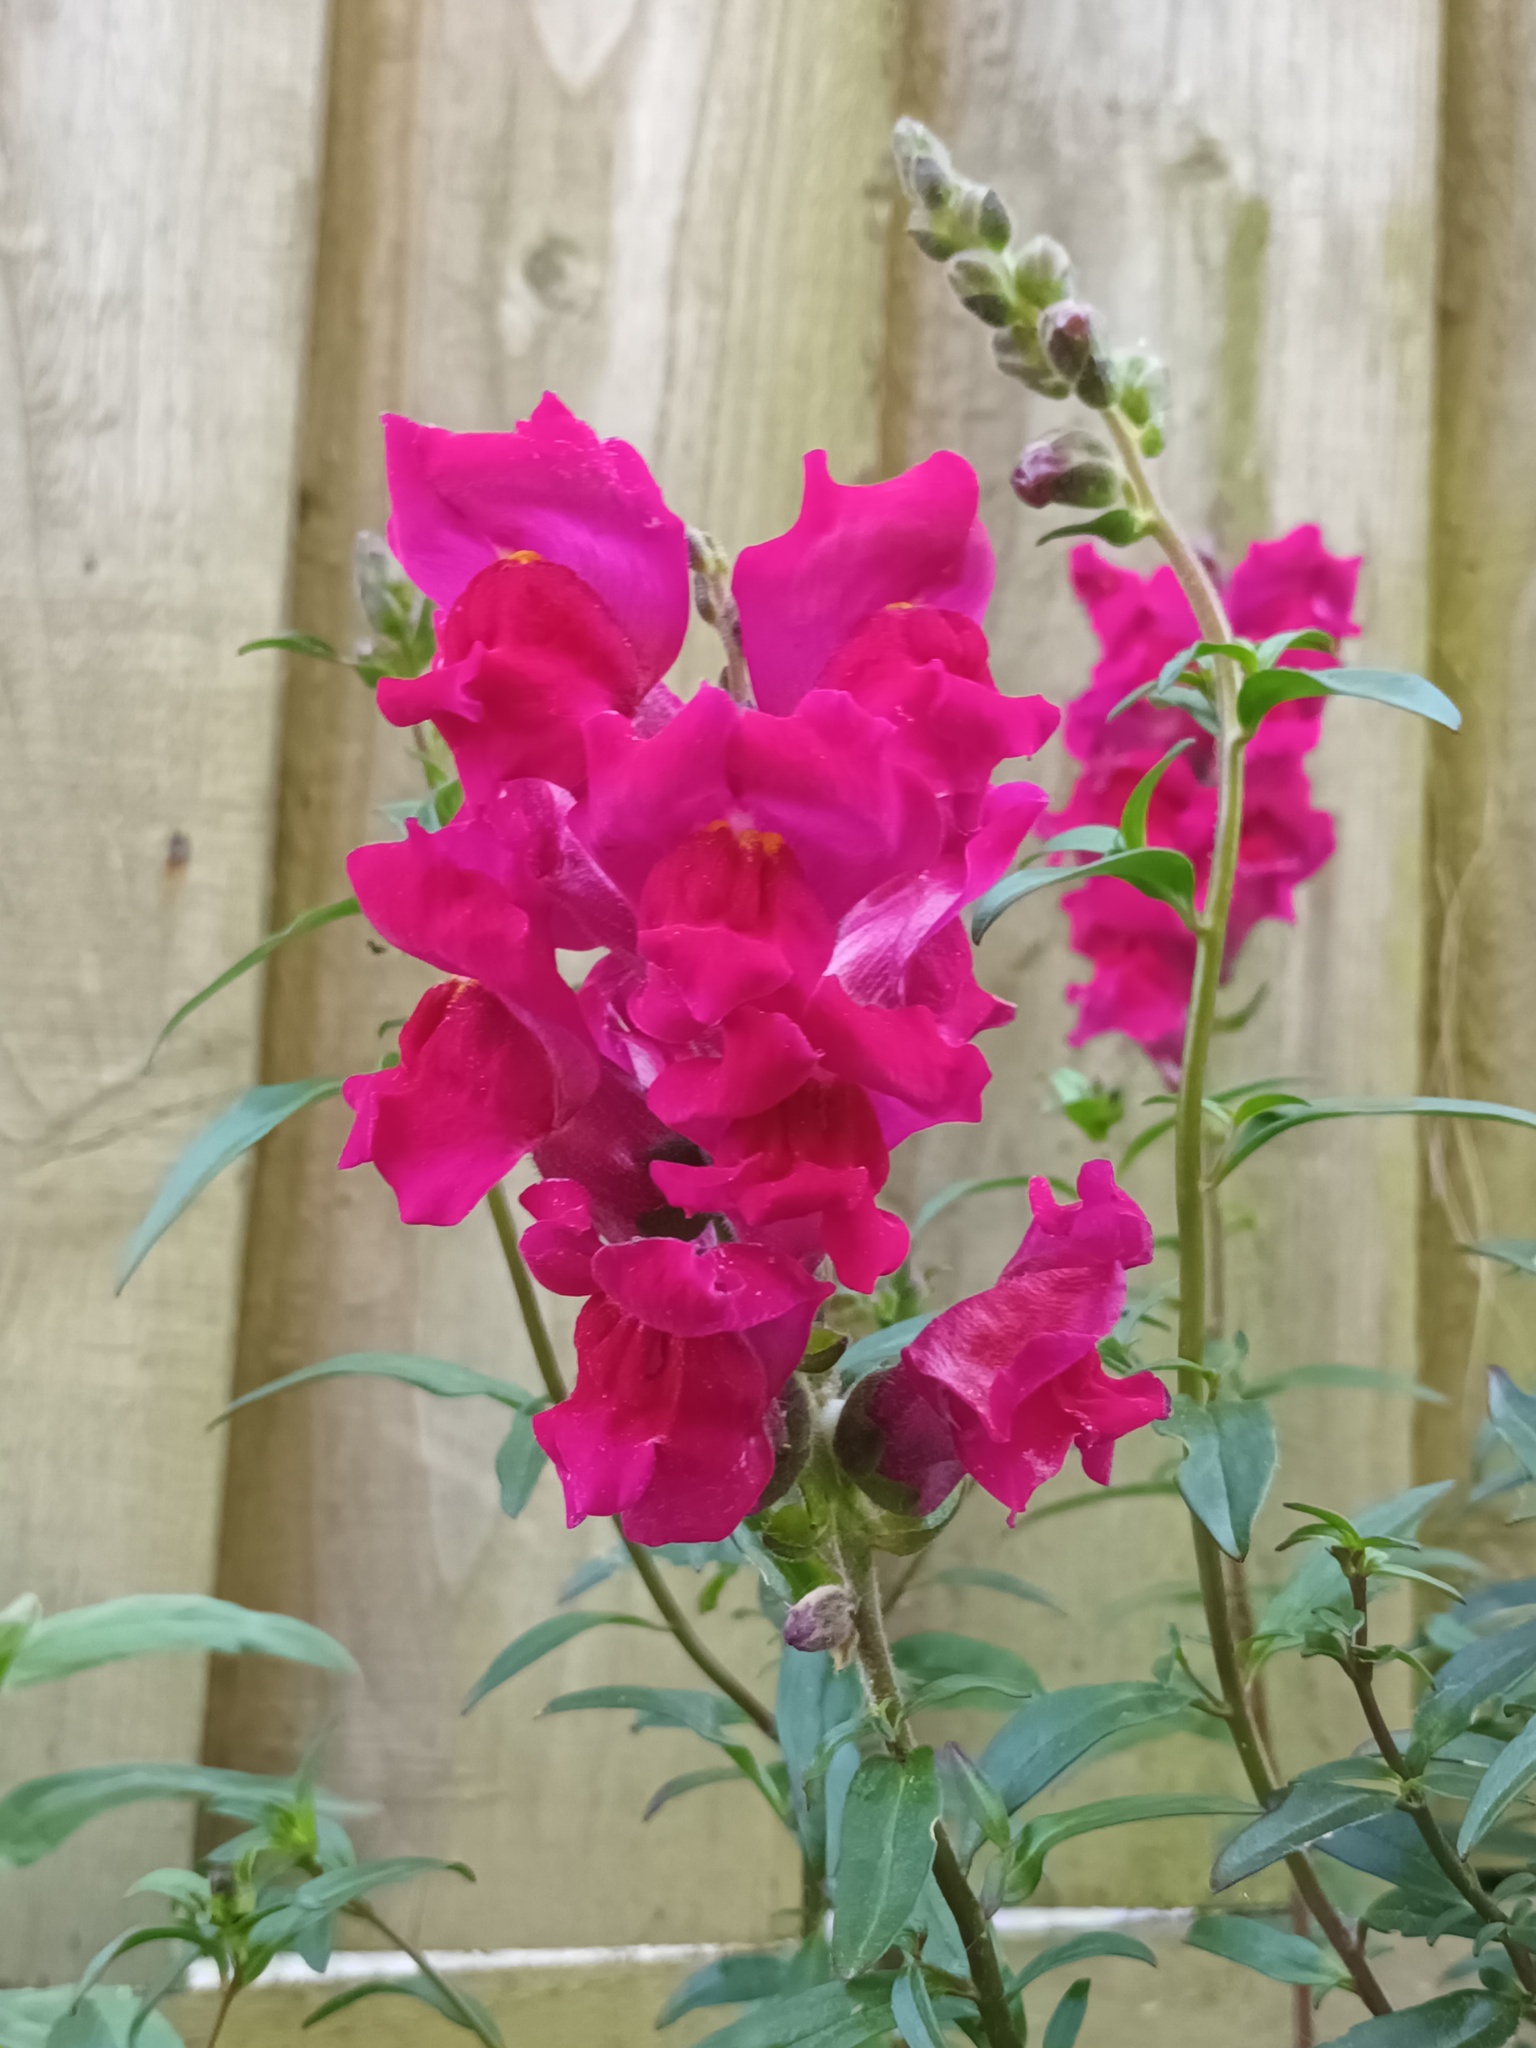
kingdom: Plantae
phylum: Tracheophyta
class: Magnoliopsida
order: Lamiales
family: Plantaginaceae
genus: Antirrhinum
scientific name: Antirrhinum majus
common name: Snapdragon
